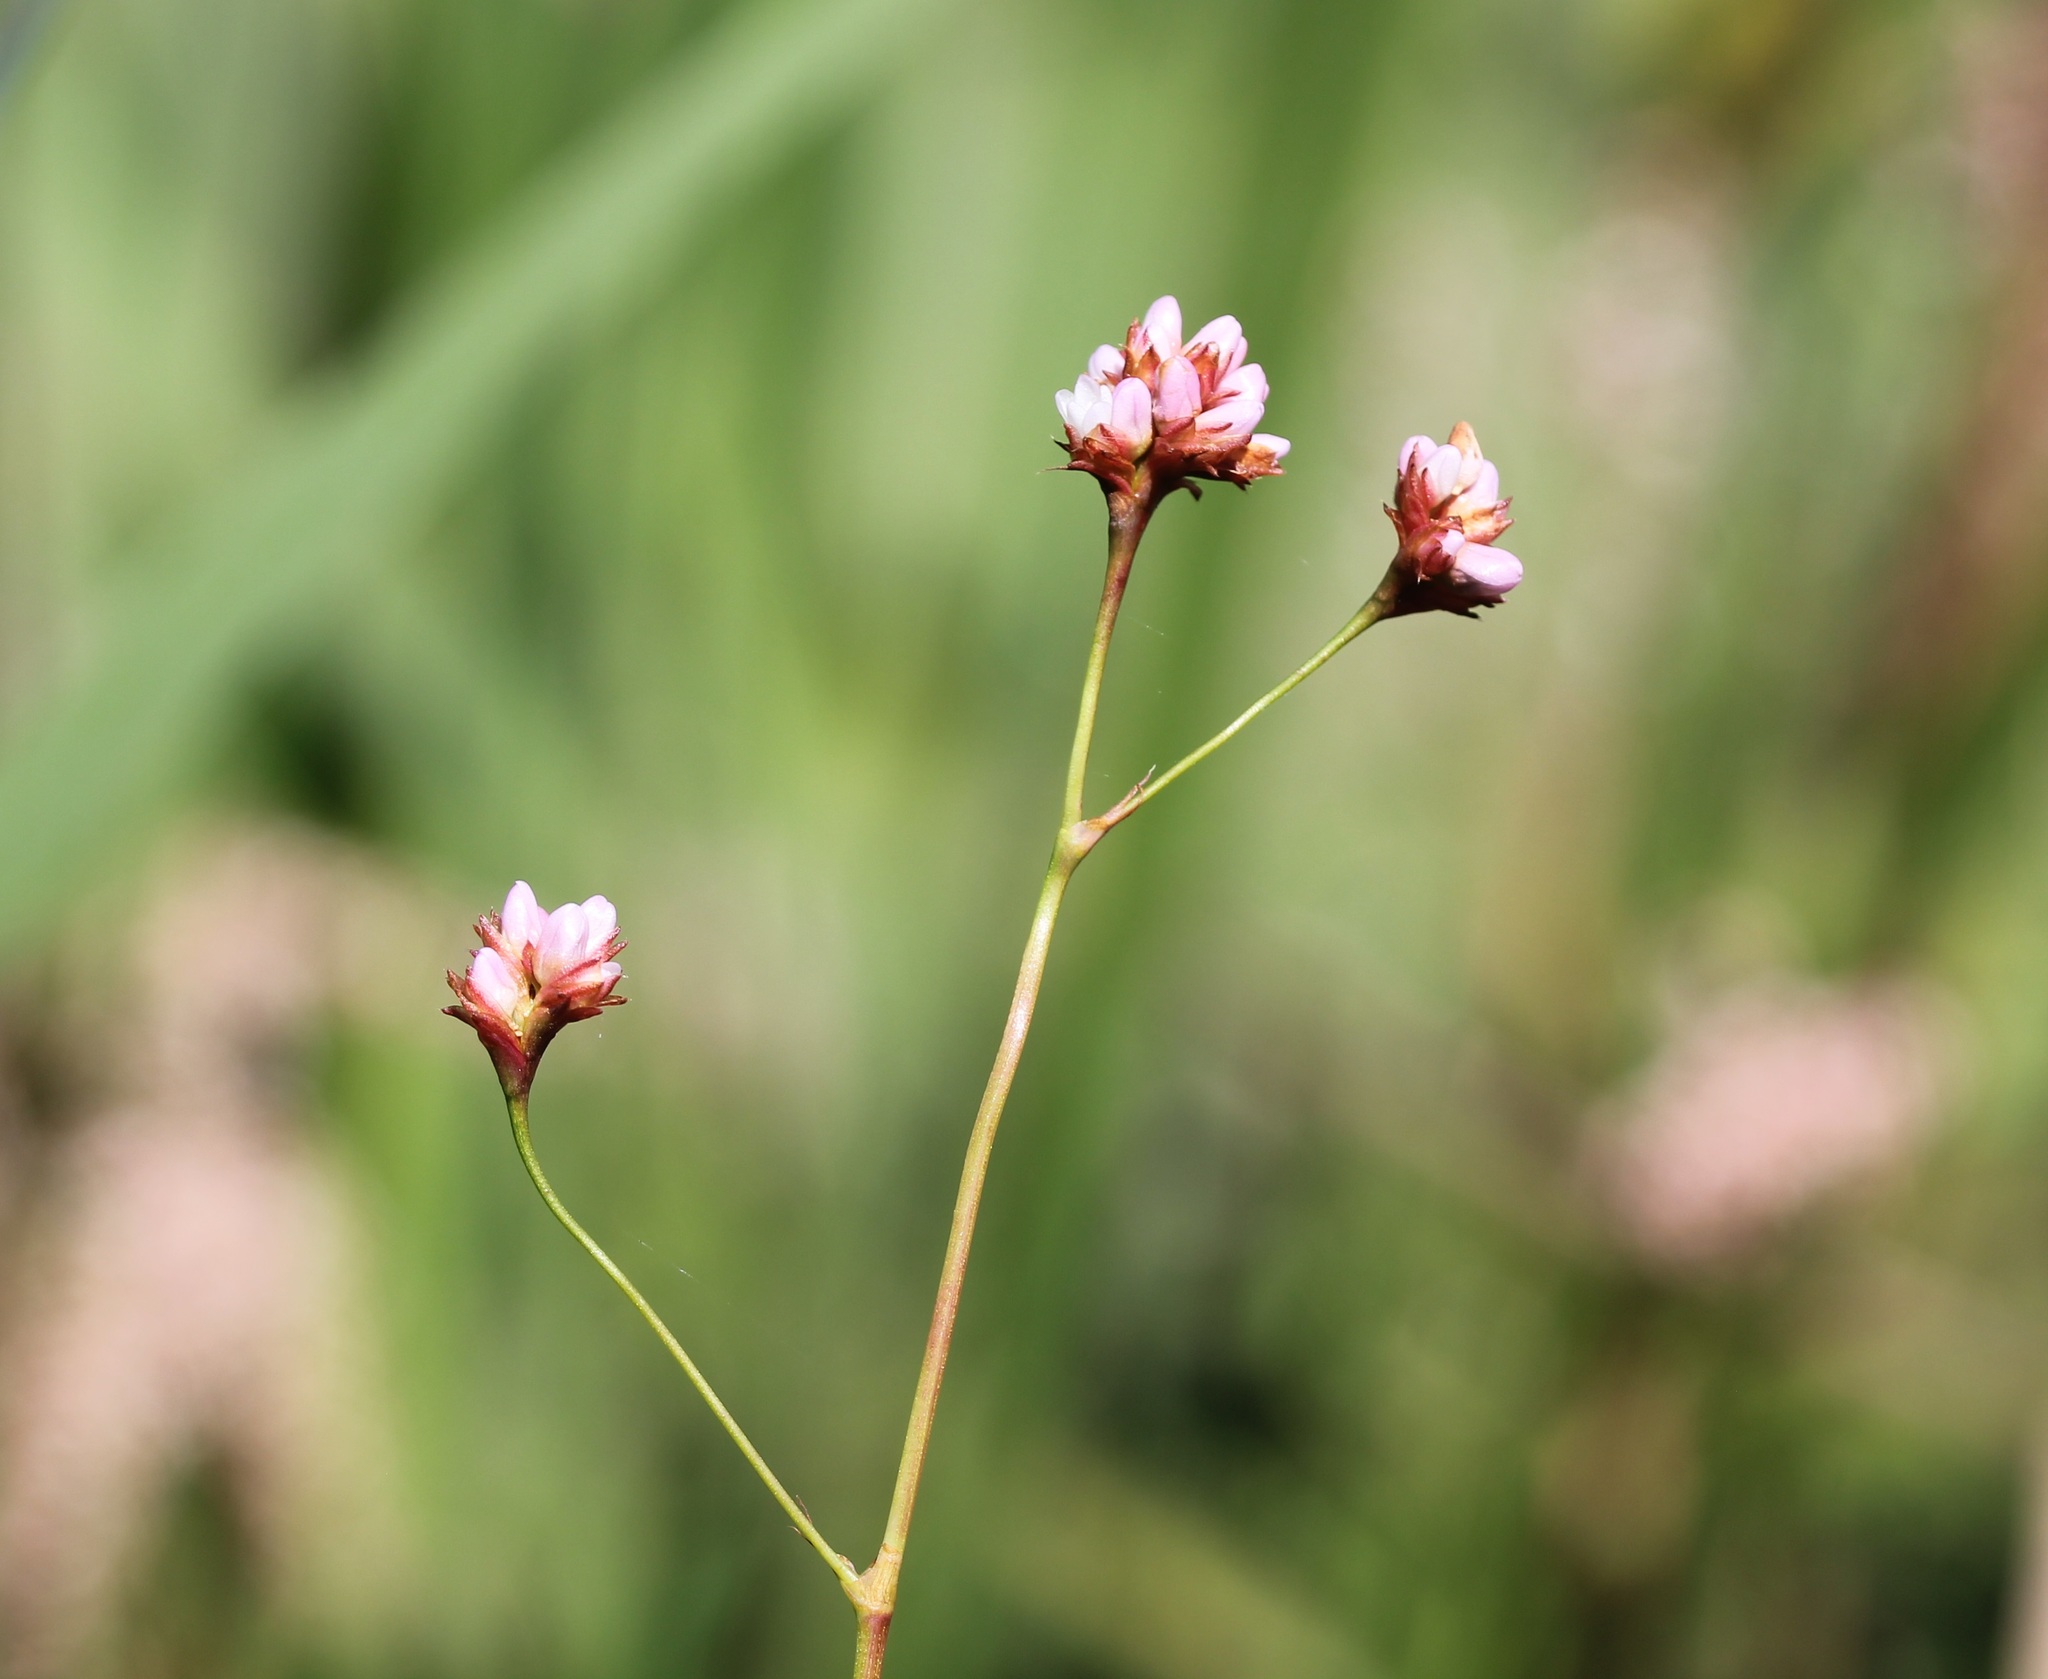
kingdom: Plantae
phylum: Tracheophyta
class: Magnoliopsida
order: Caryophyllales
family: Polygonaceae
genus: Persicaria
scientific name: Persicaria sagittata
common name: American tearthumb
